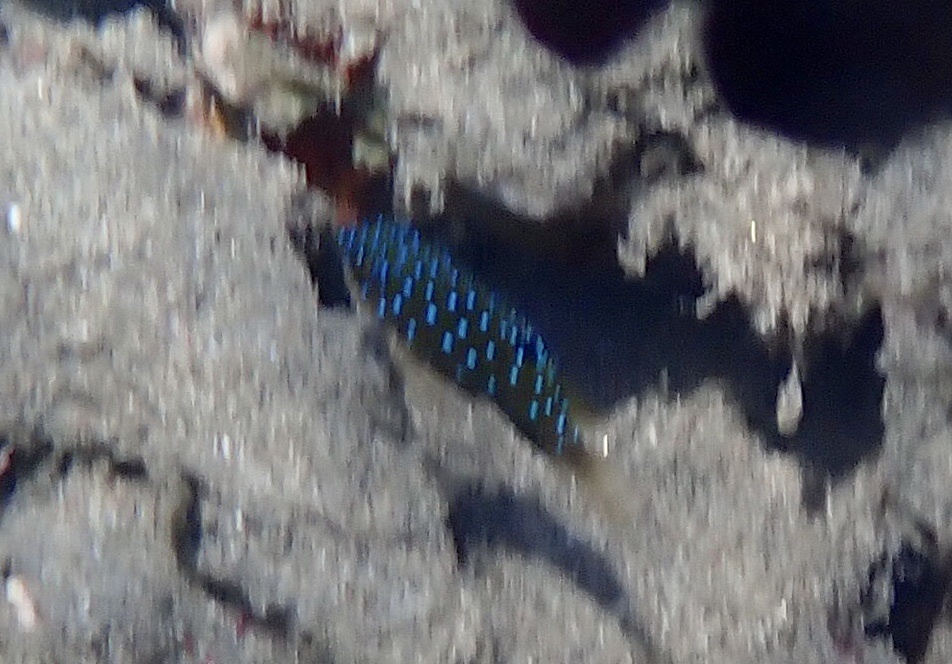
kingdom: Animalia
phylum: Chordata
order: Perciformes
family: Pomacentridae
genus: Plectroglyphidodon
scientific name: Plectroglyphidodon lacrymatus
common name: Jewel damsel
